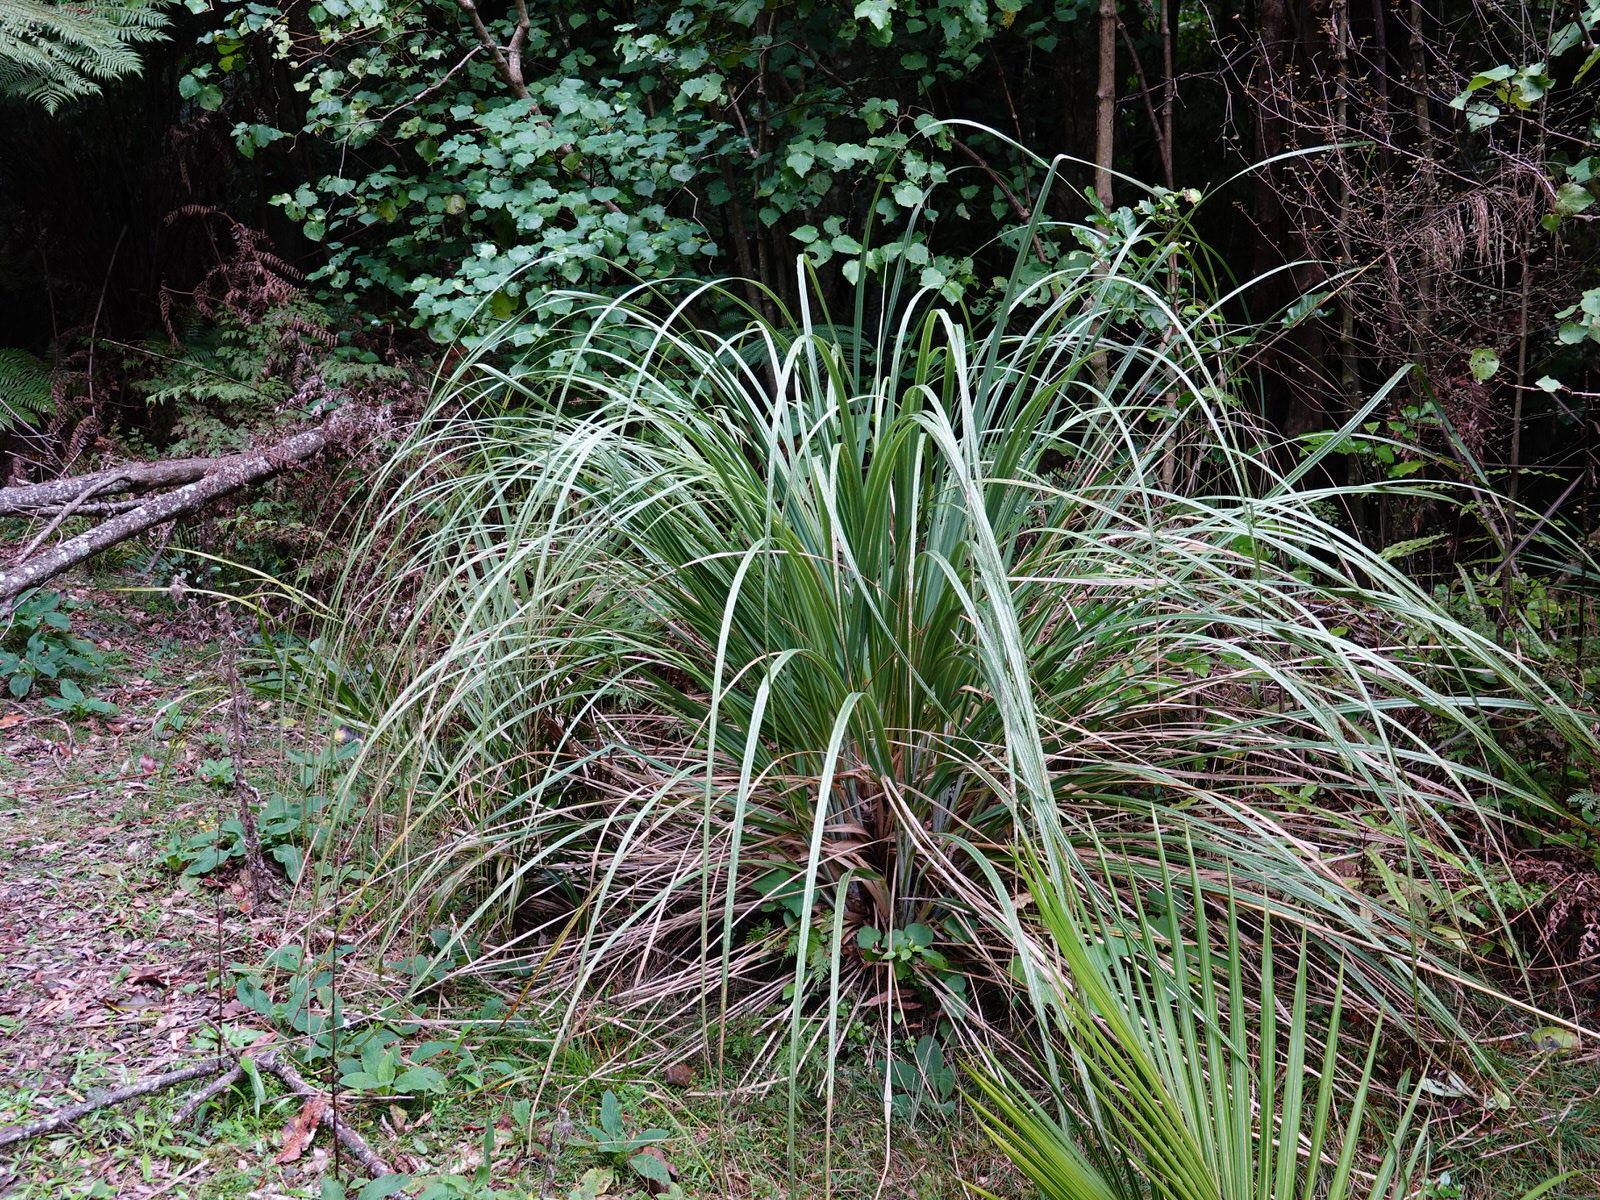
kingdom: Plantae
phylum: Tracheophyta
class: Liliopsida
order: Poales
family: Poaceae
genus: Austroderia
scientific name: Austroderia fulvida
